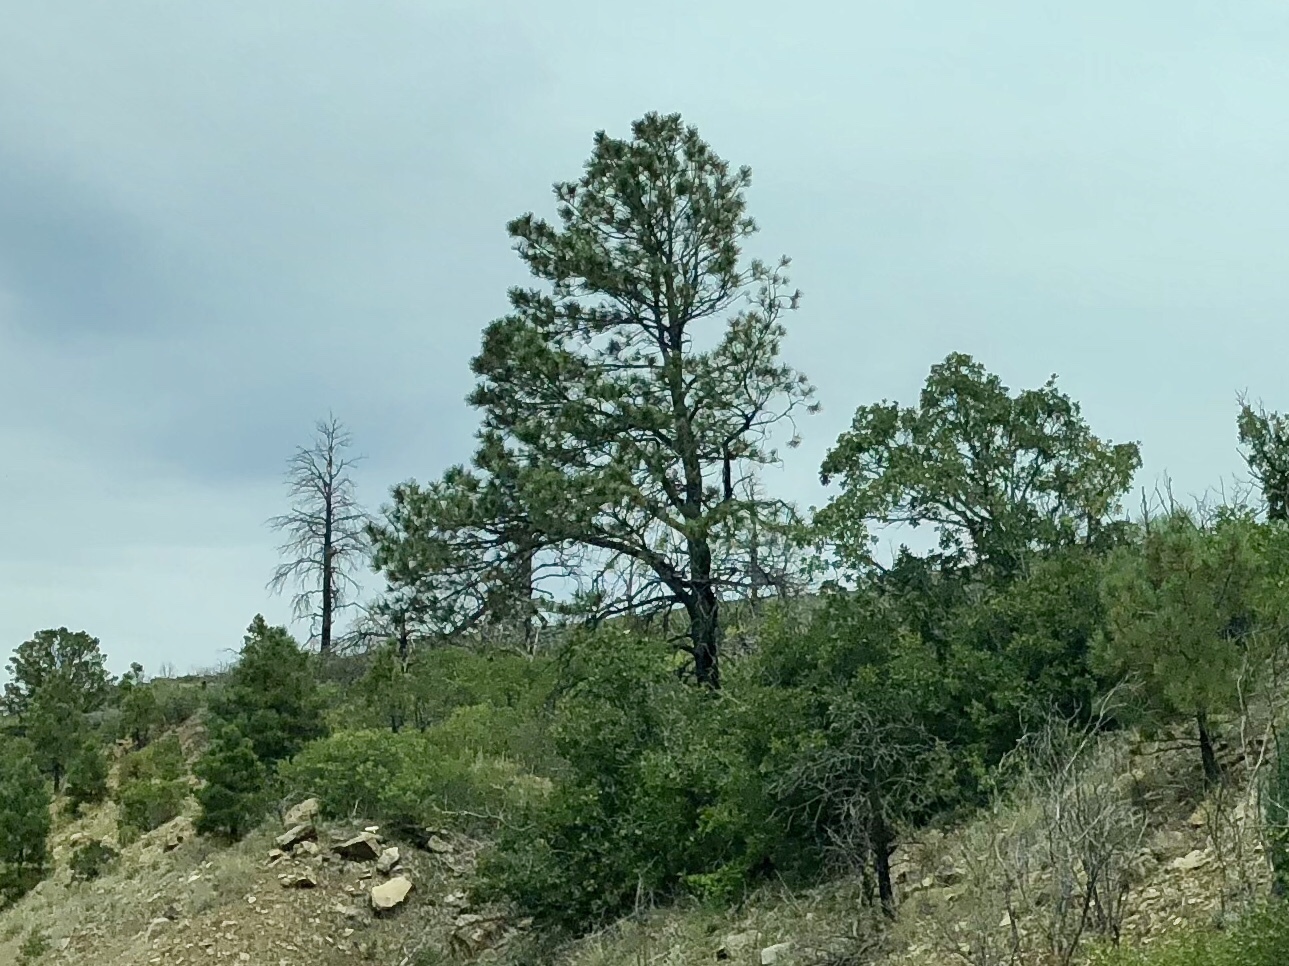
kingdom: Plantae
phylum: Tracheophyta
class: Pinopsida
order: Pinales
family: Pinaceae
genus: Pinus
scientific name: Pinus ponderosa
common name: Western yellow-pine
